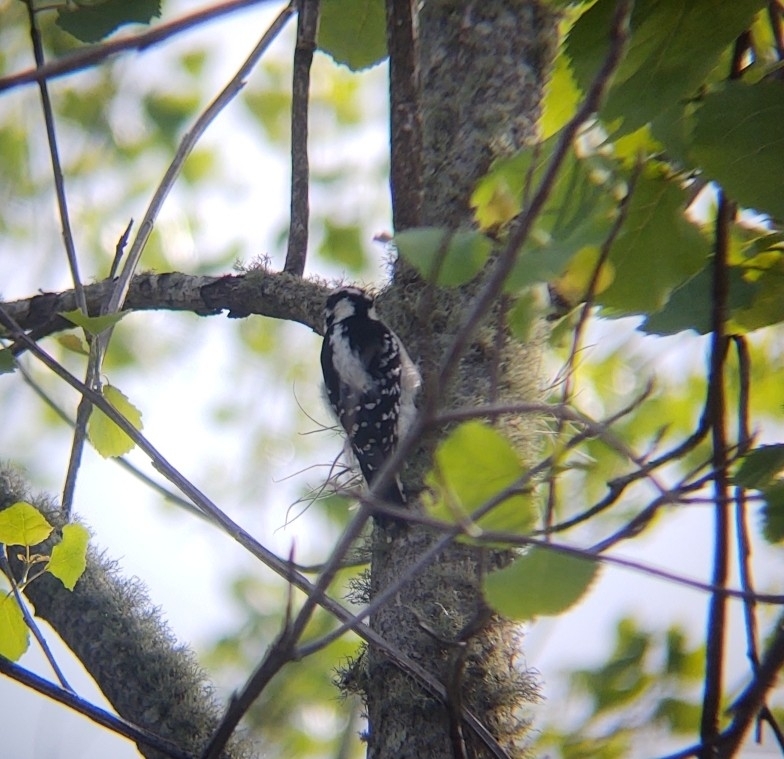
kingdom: Animalia
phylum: Chordata
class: Aves
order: Piciformes
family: Picidae
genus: Dryobates
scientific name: Dryobates pubescens
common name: Downy woodpecker
